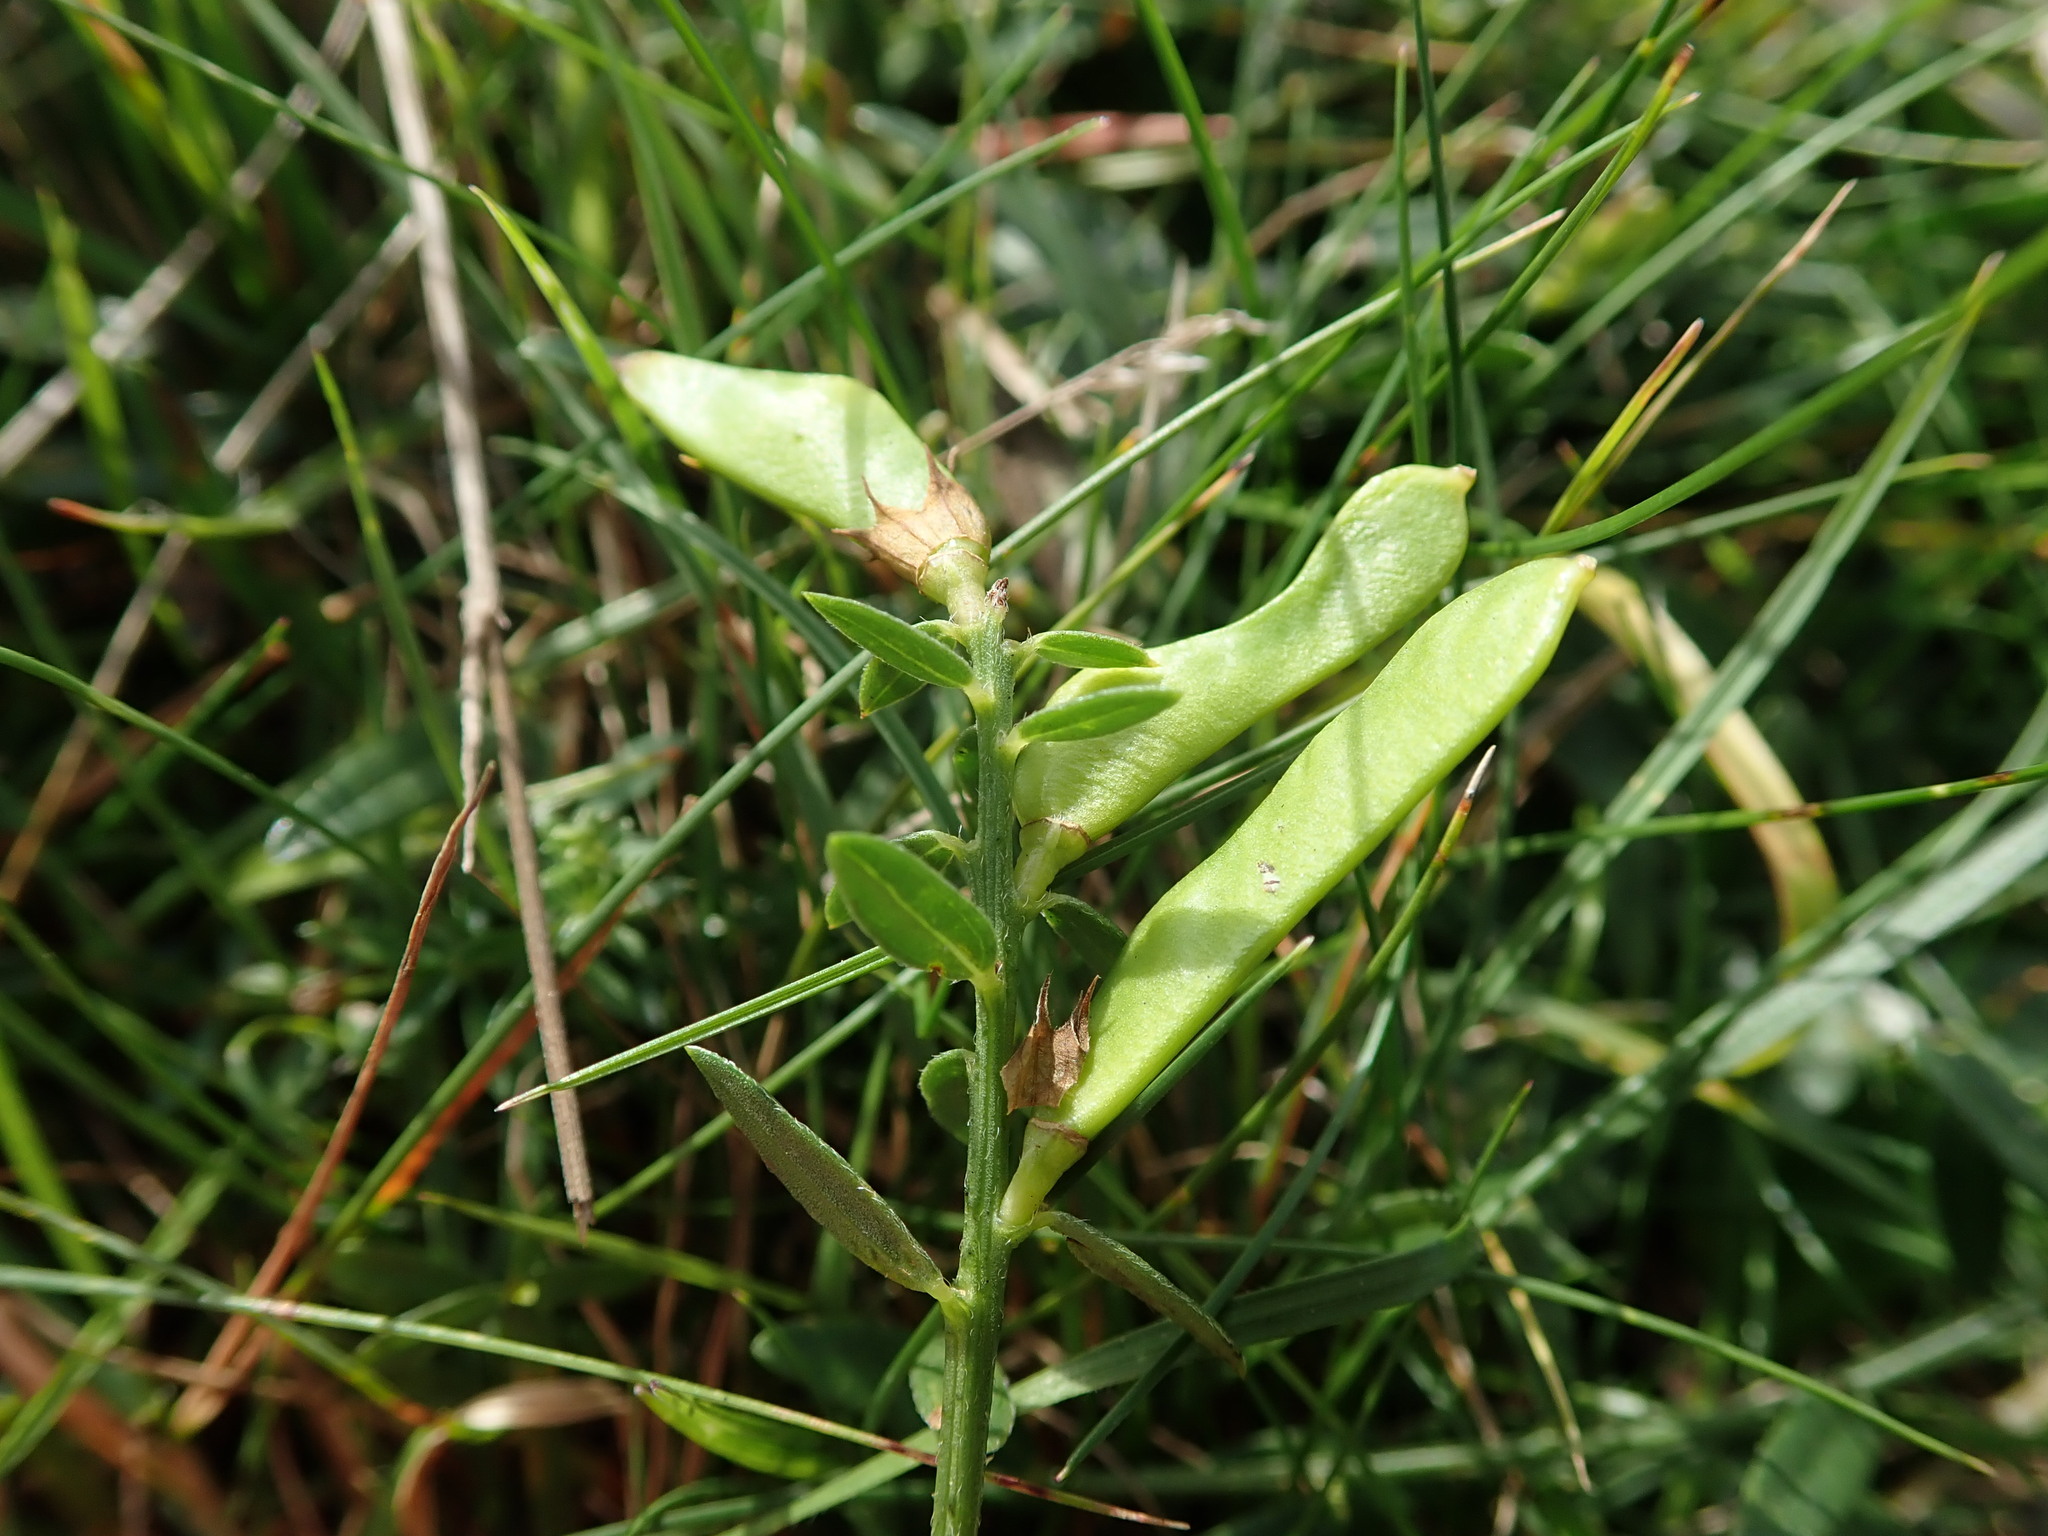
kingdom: Plantae
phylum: Tracheophyta
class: Magnoliopsida
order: Fabales
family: Fabaceae
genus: Genista
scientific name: Genista tinctoria
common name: Dyer's greenweed
